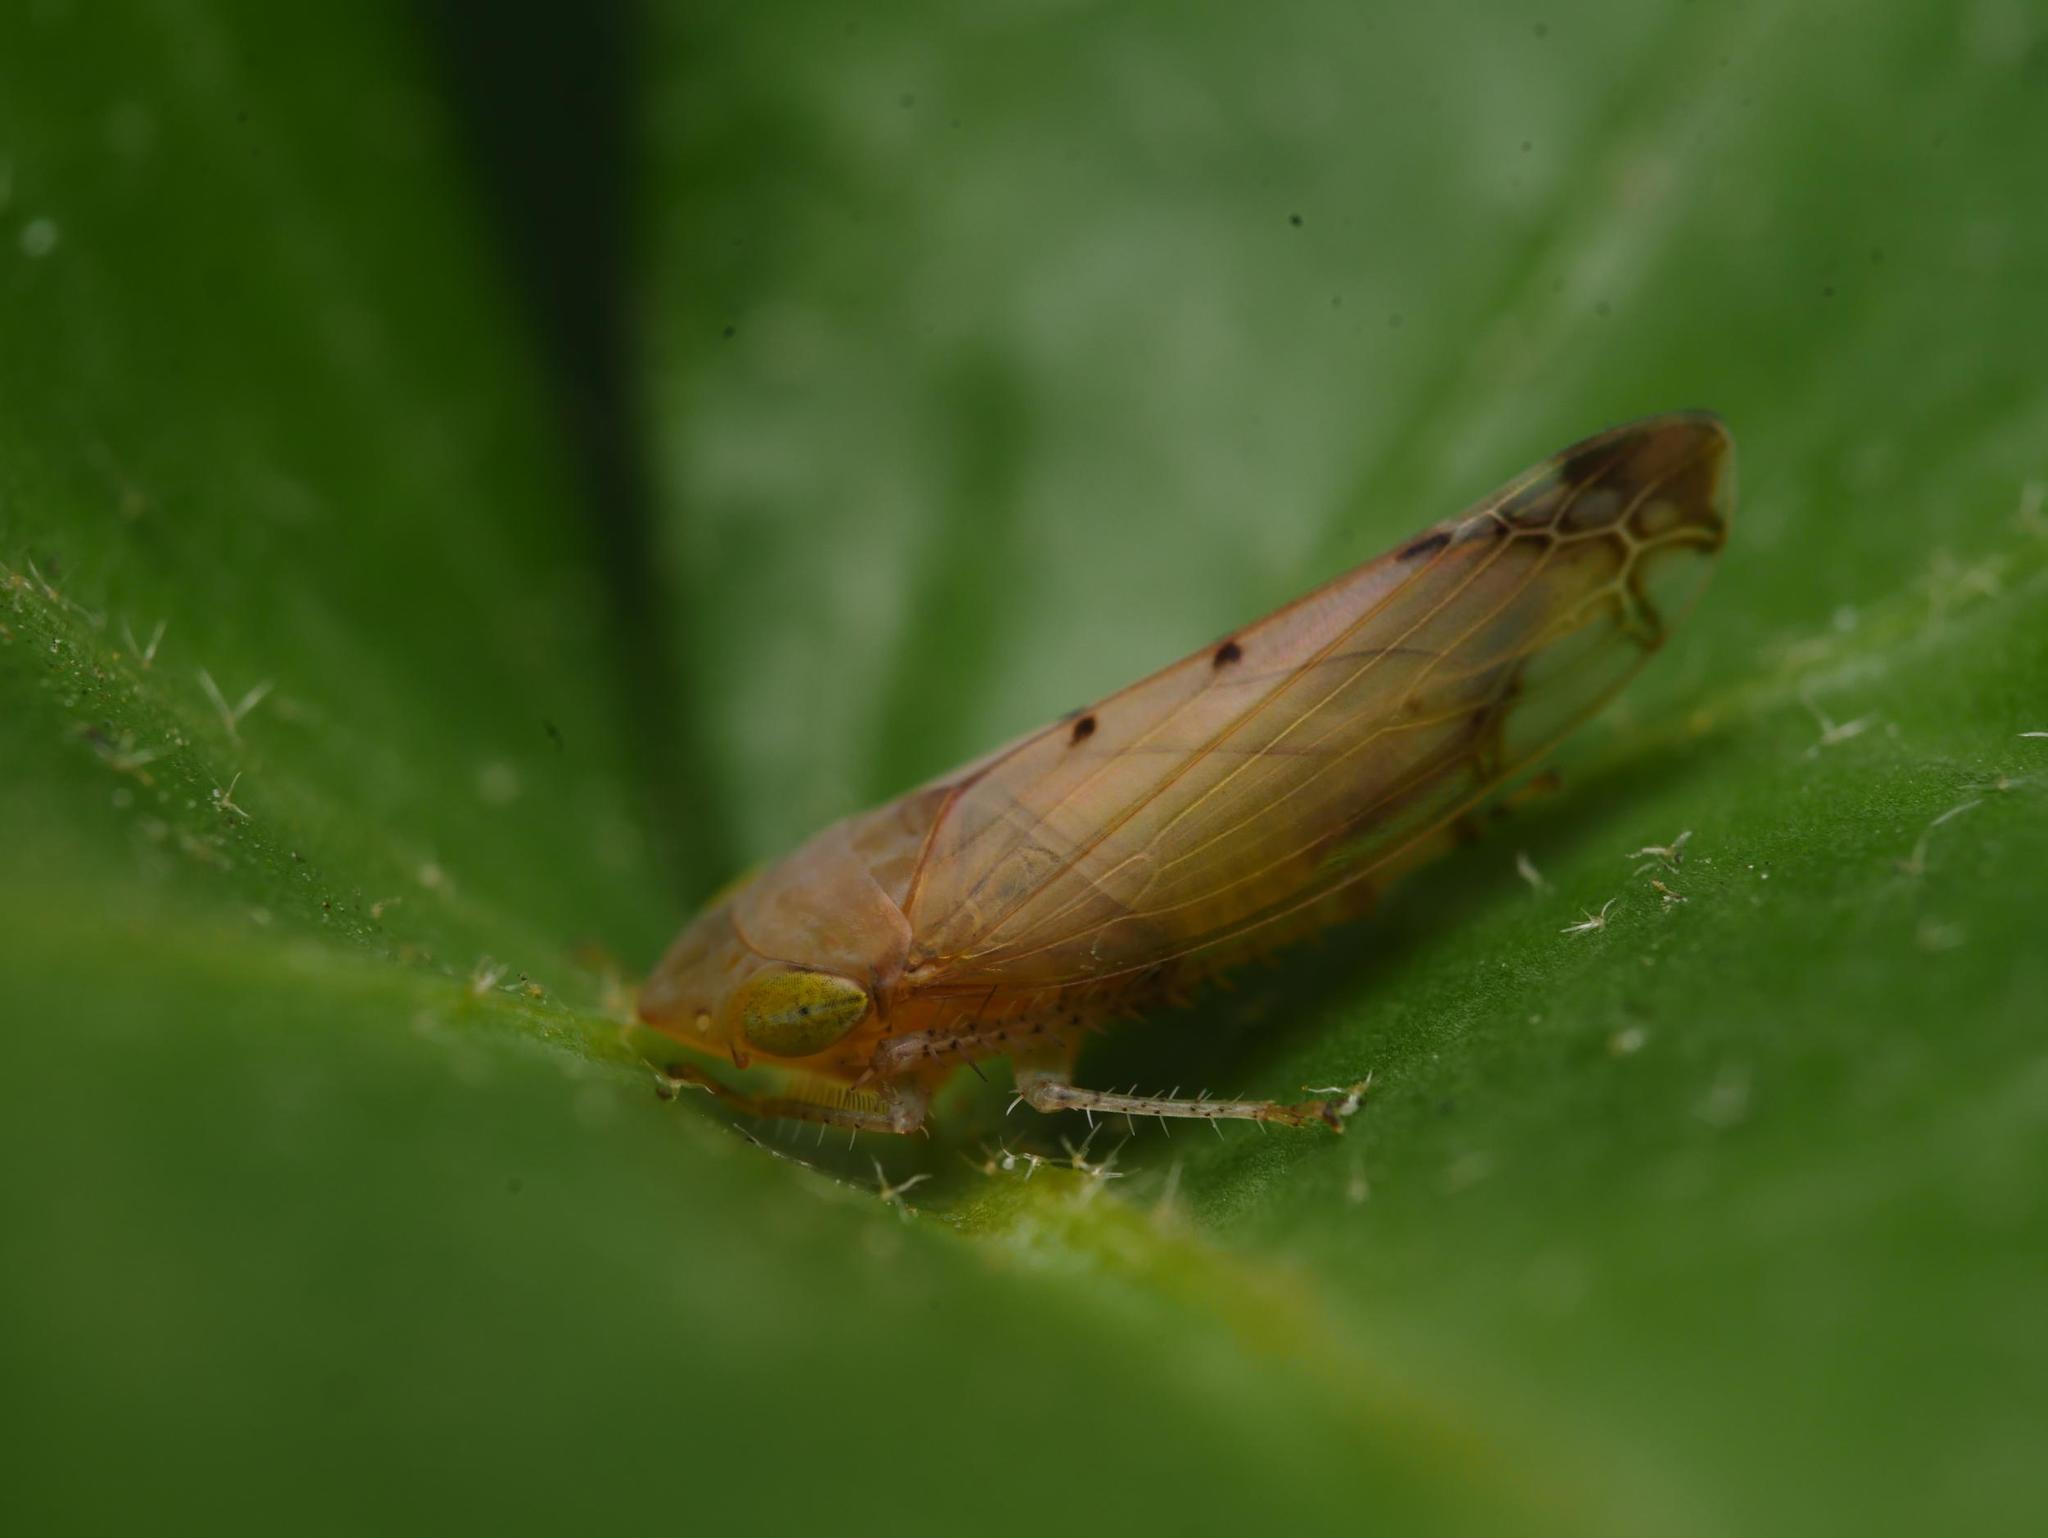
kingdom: Animalia
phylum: Arthropoda
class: Insecta
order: Hemiptera
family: Cicadellidae
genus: Synophropsis
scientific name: Synophropsis lauri
